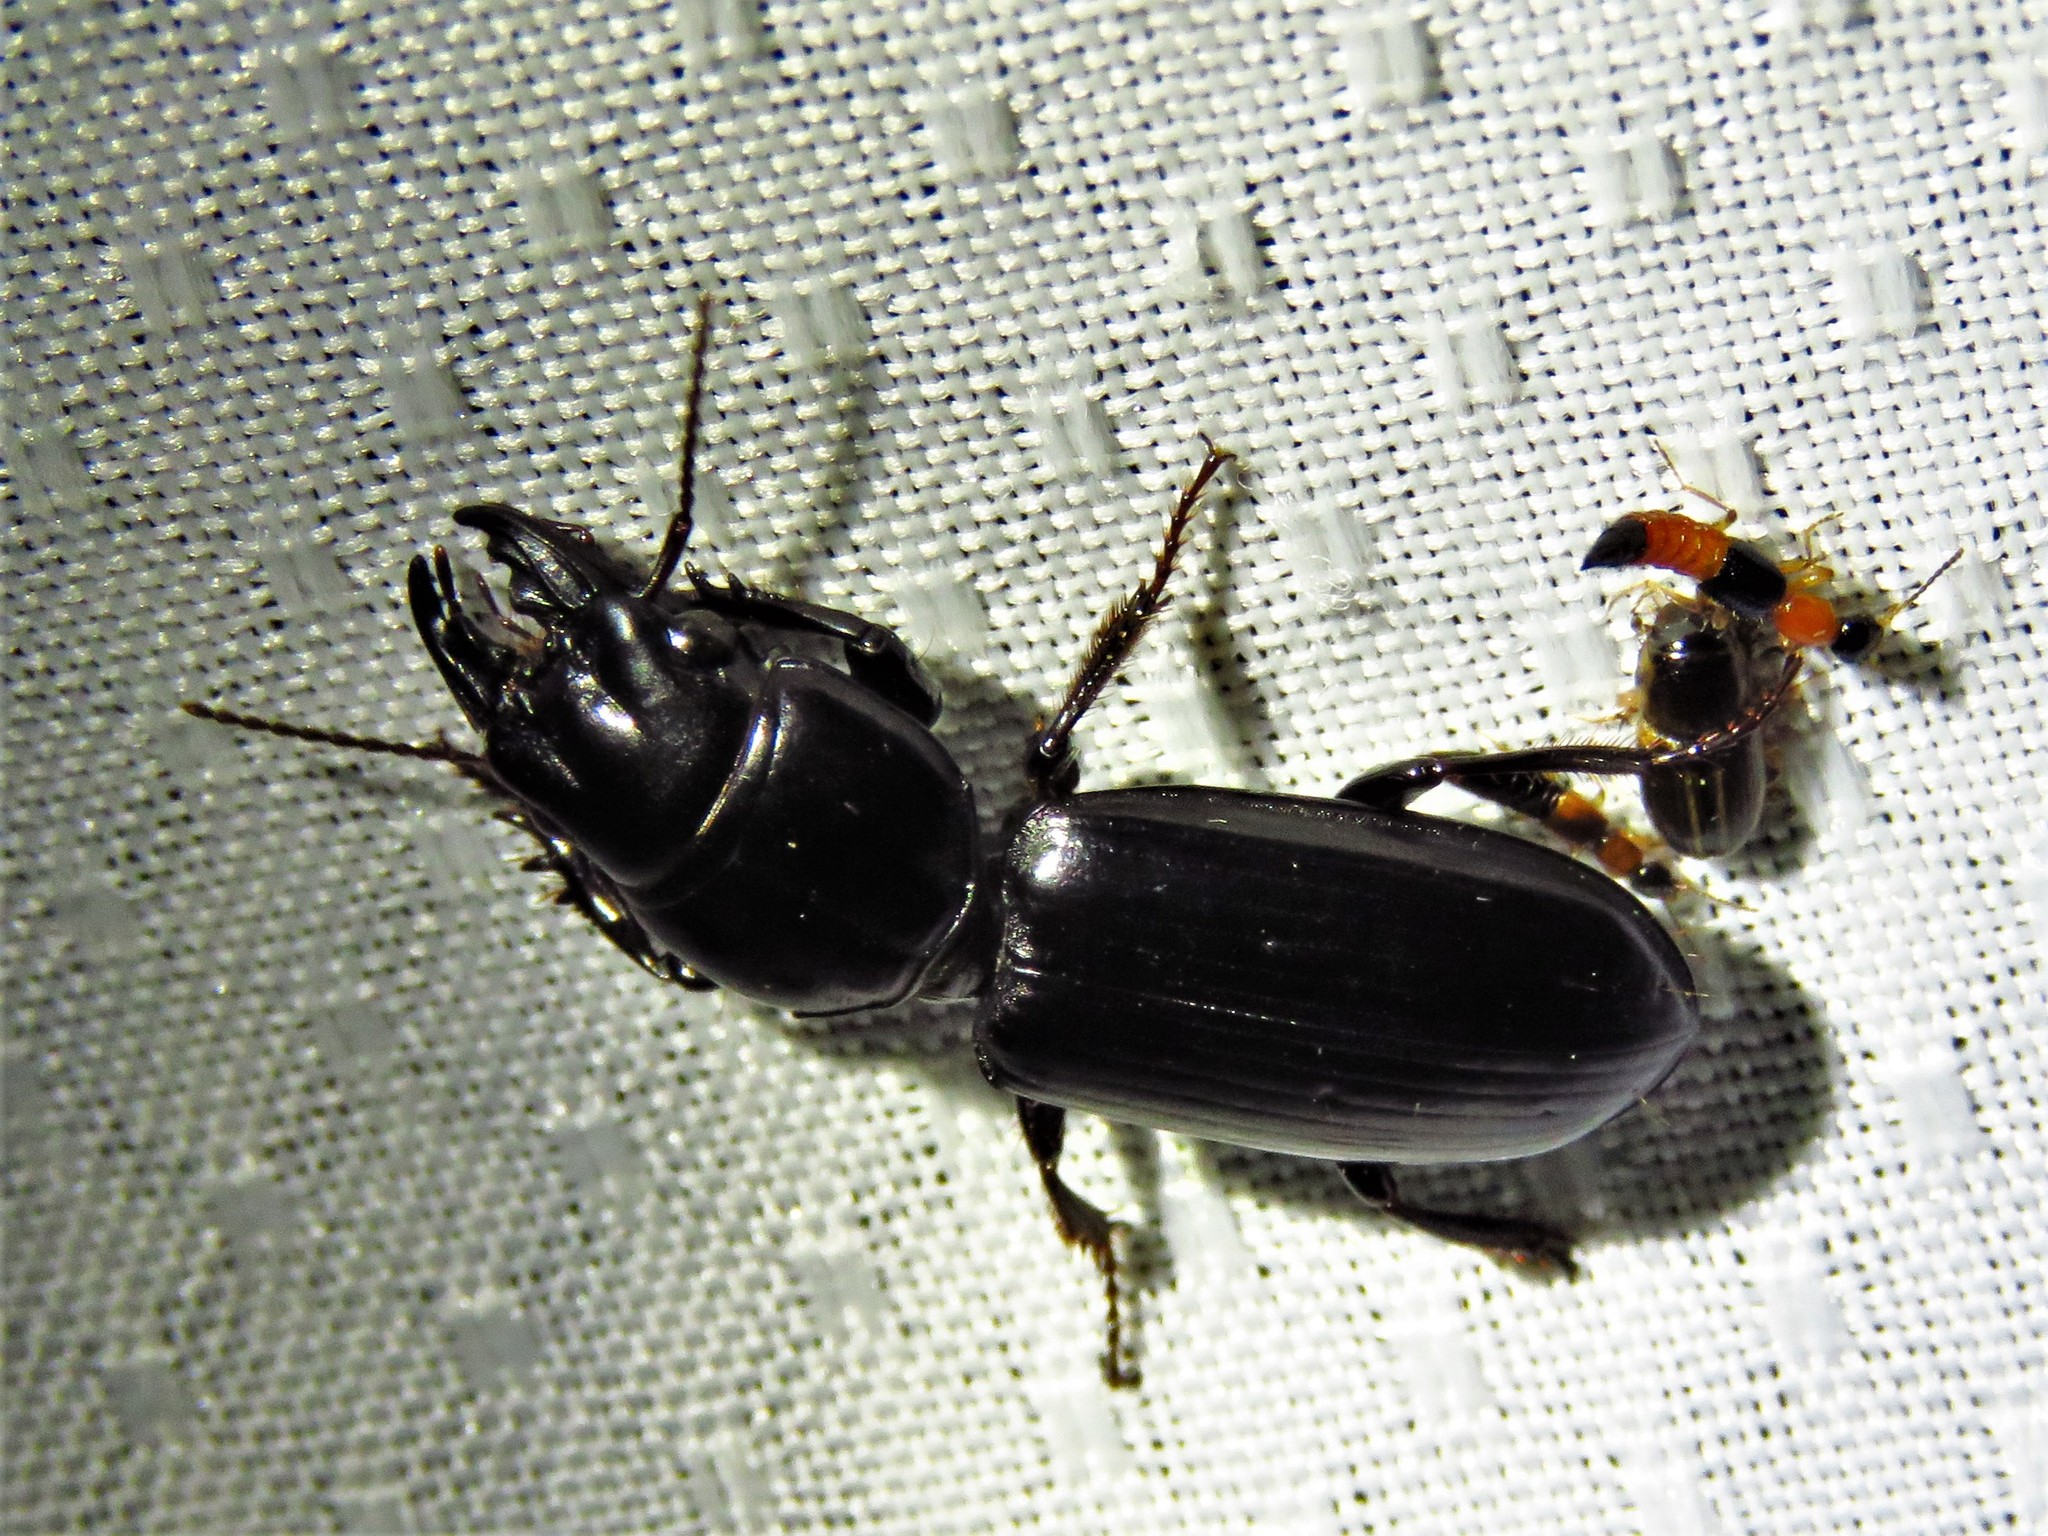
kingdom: Animalia
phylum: Arthropoda
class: Insecta
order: Coleoptera
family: Carabidae
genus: Scarites
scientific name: Scarites subterraneus
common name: Big-headed ground beetle
